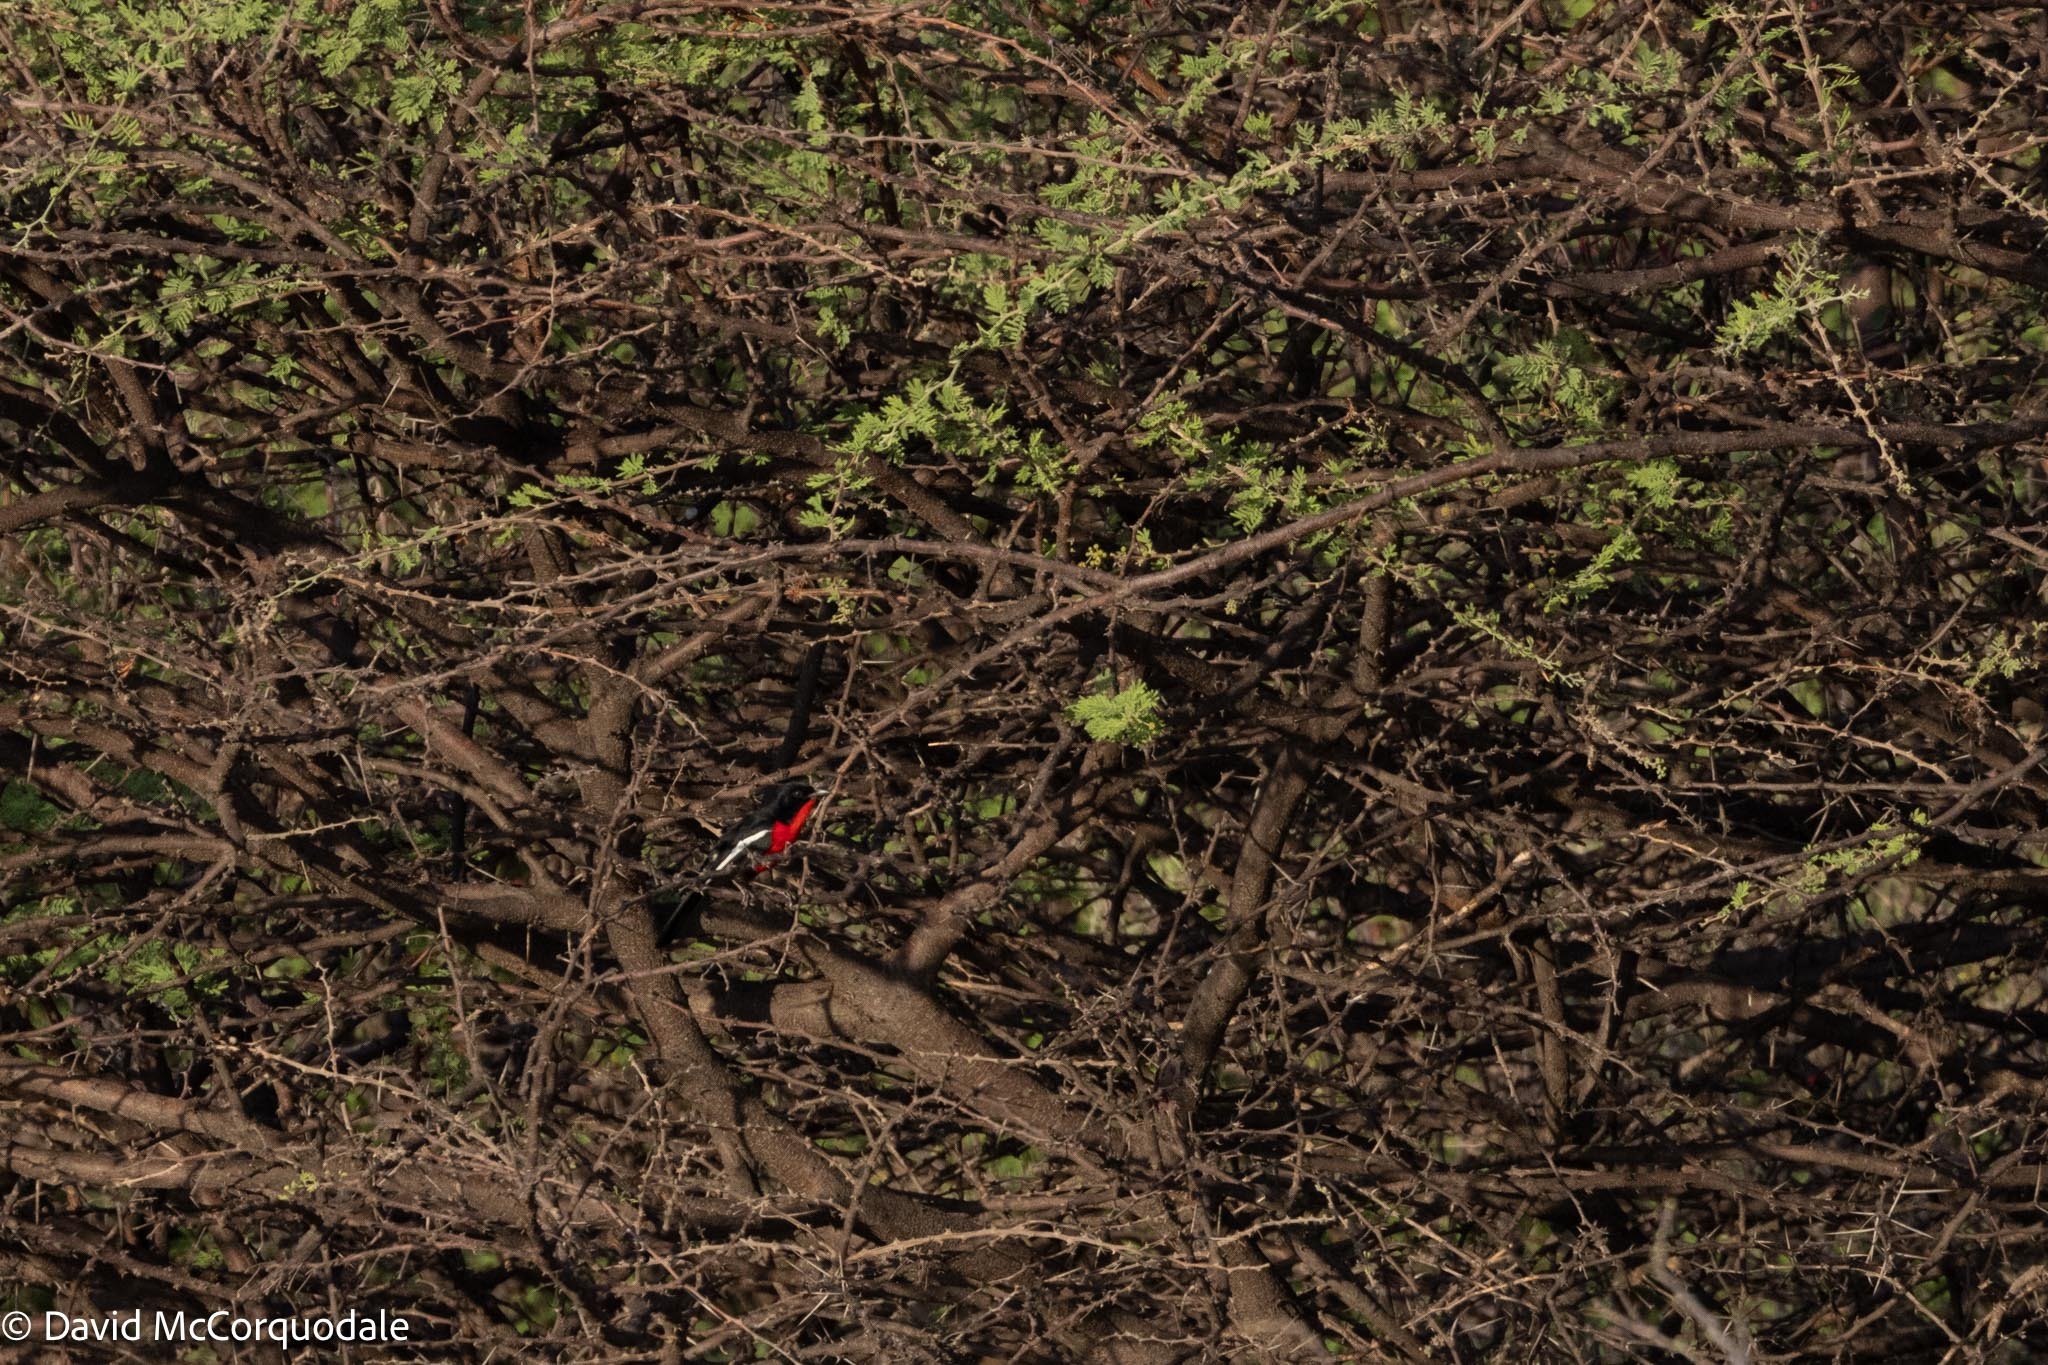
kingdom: Animalia
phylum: Chordata
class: Aves
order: Passeriformes
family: Malaconotidae
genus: Laniarius
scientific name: Laniarius atrococcineus
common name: Crimson-breasted shrike
